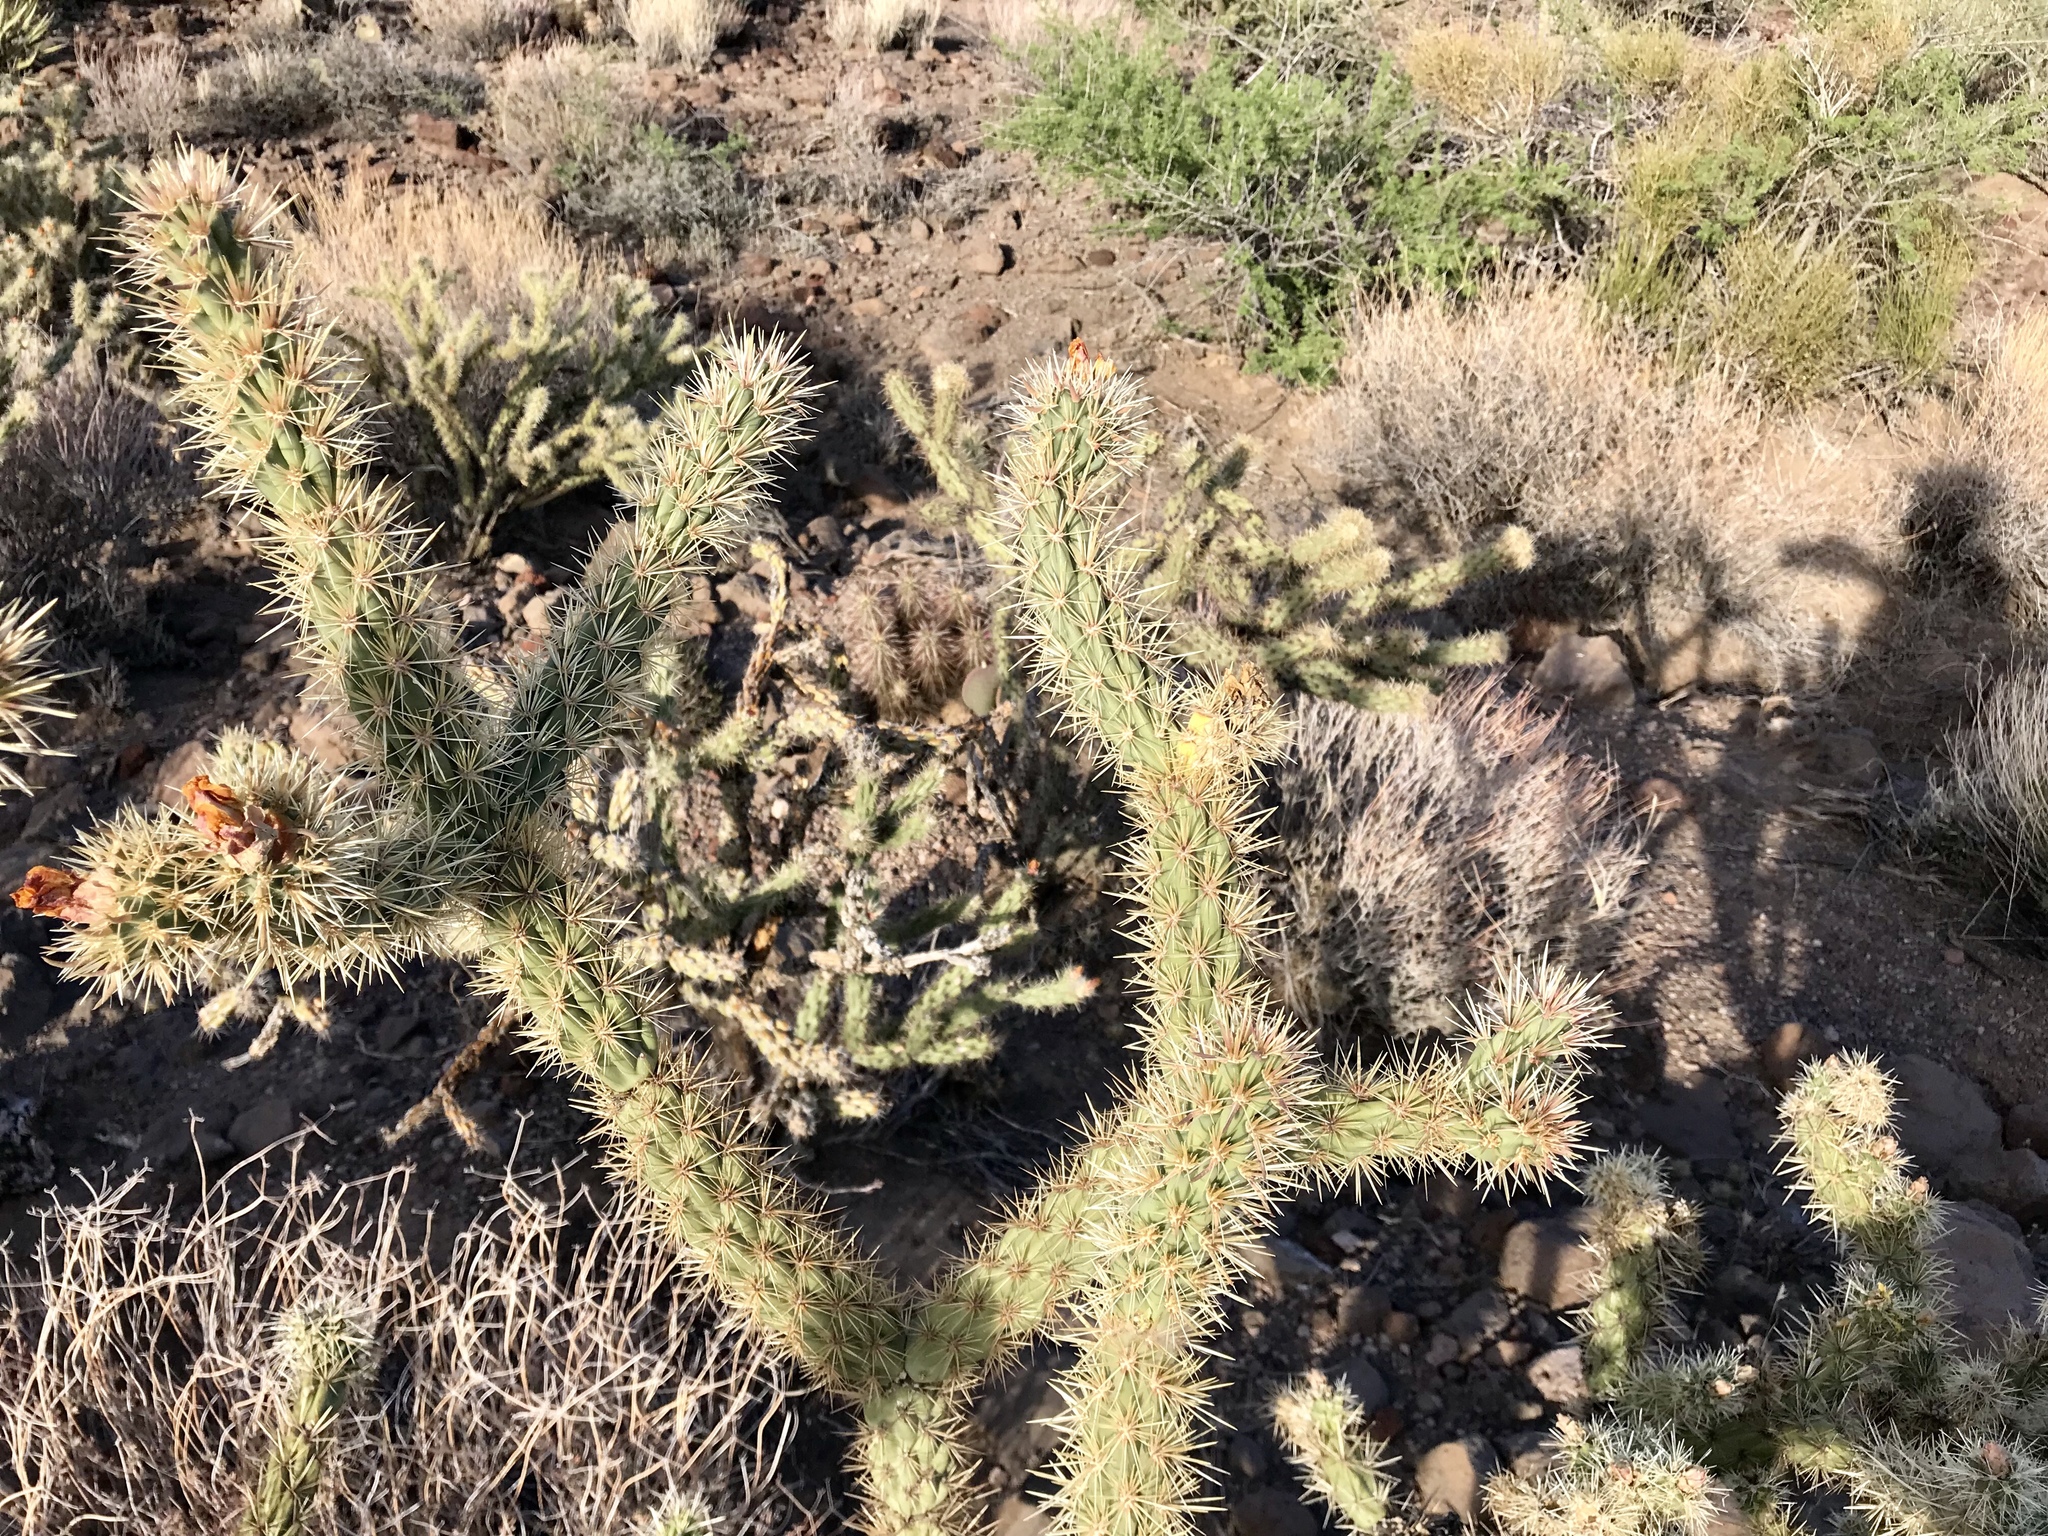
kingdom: Plantae
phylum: Tracheophyta
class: Magnoliopsida
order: Caryophyllales
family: Cactaceae
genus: Cylindropuntia
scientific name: Cylindropuntia acanthocarpa
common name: Buckhorn cholla
